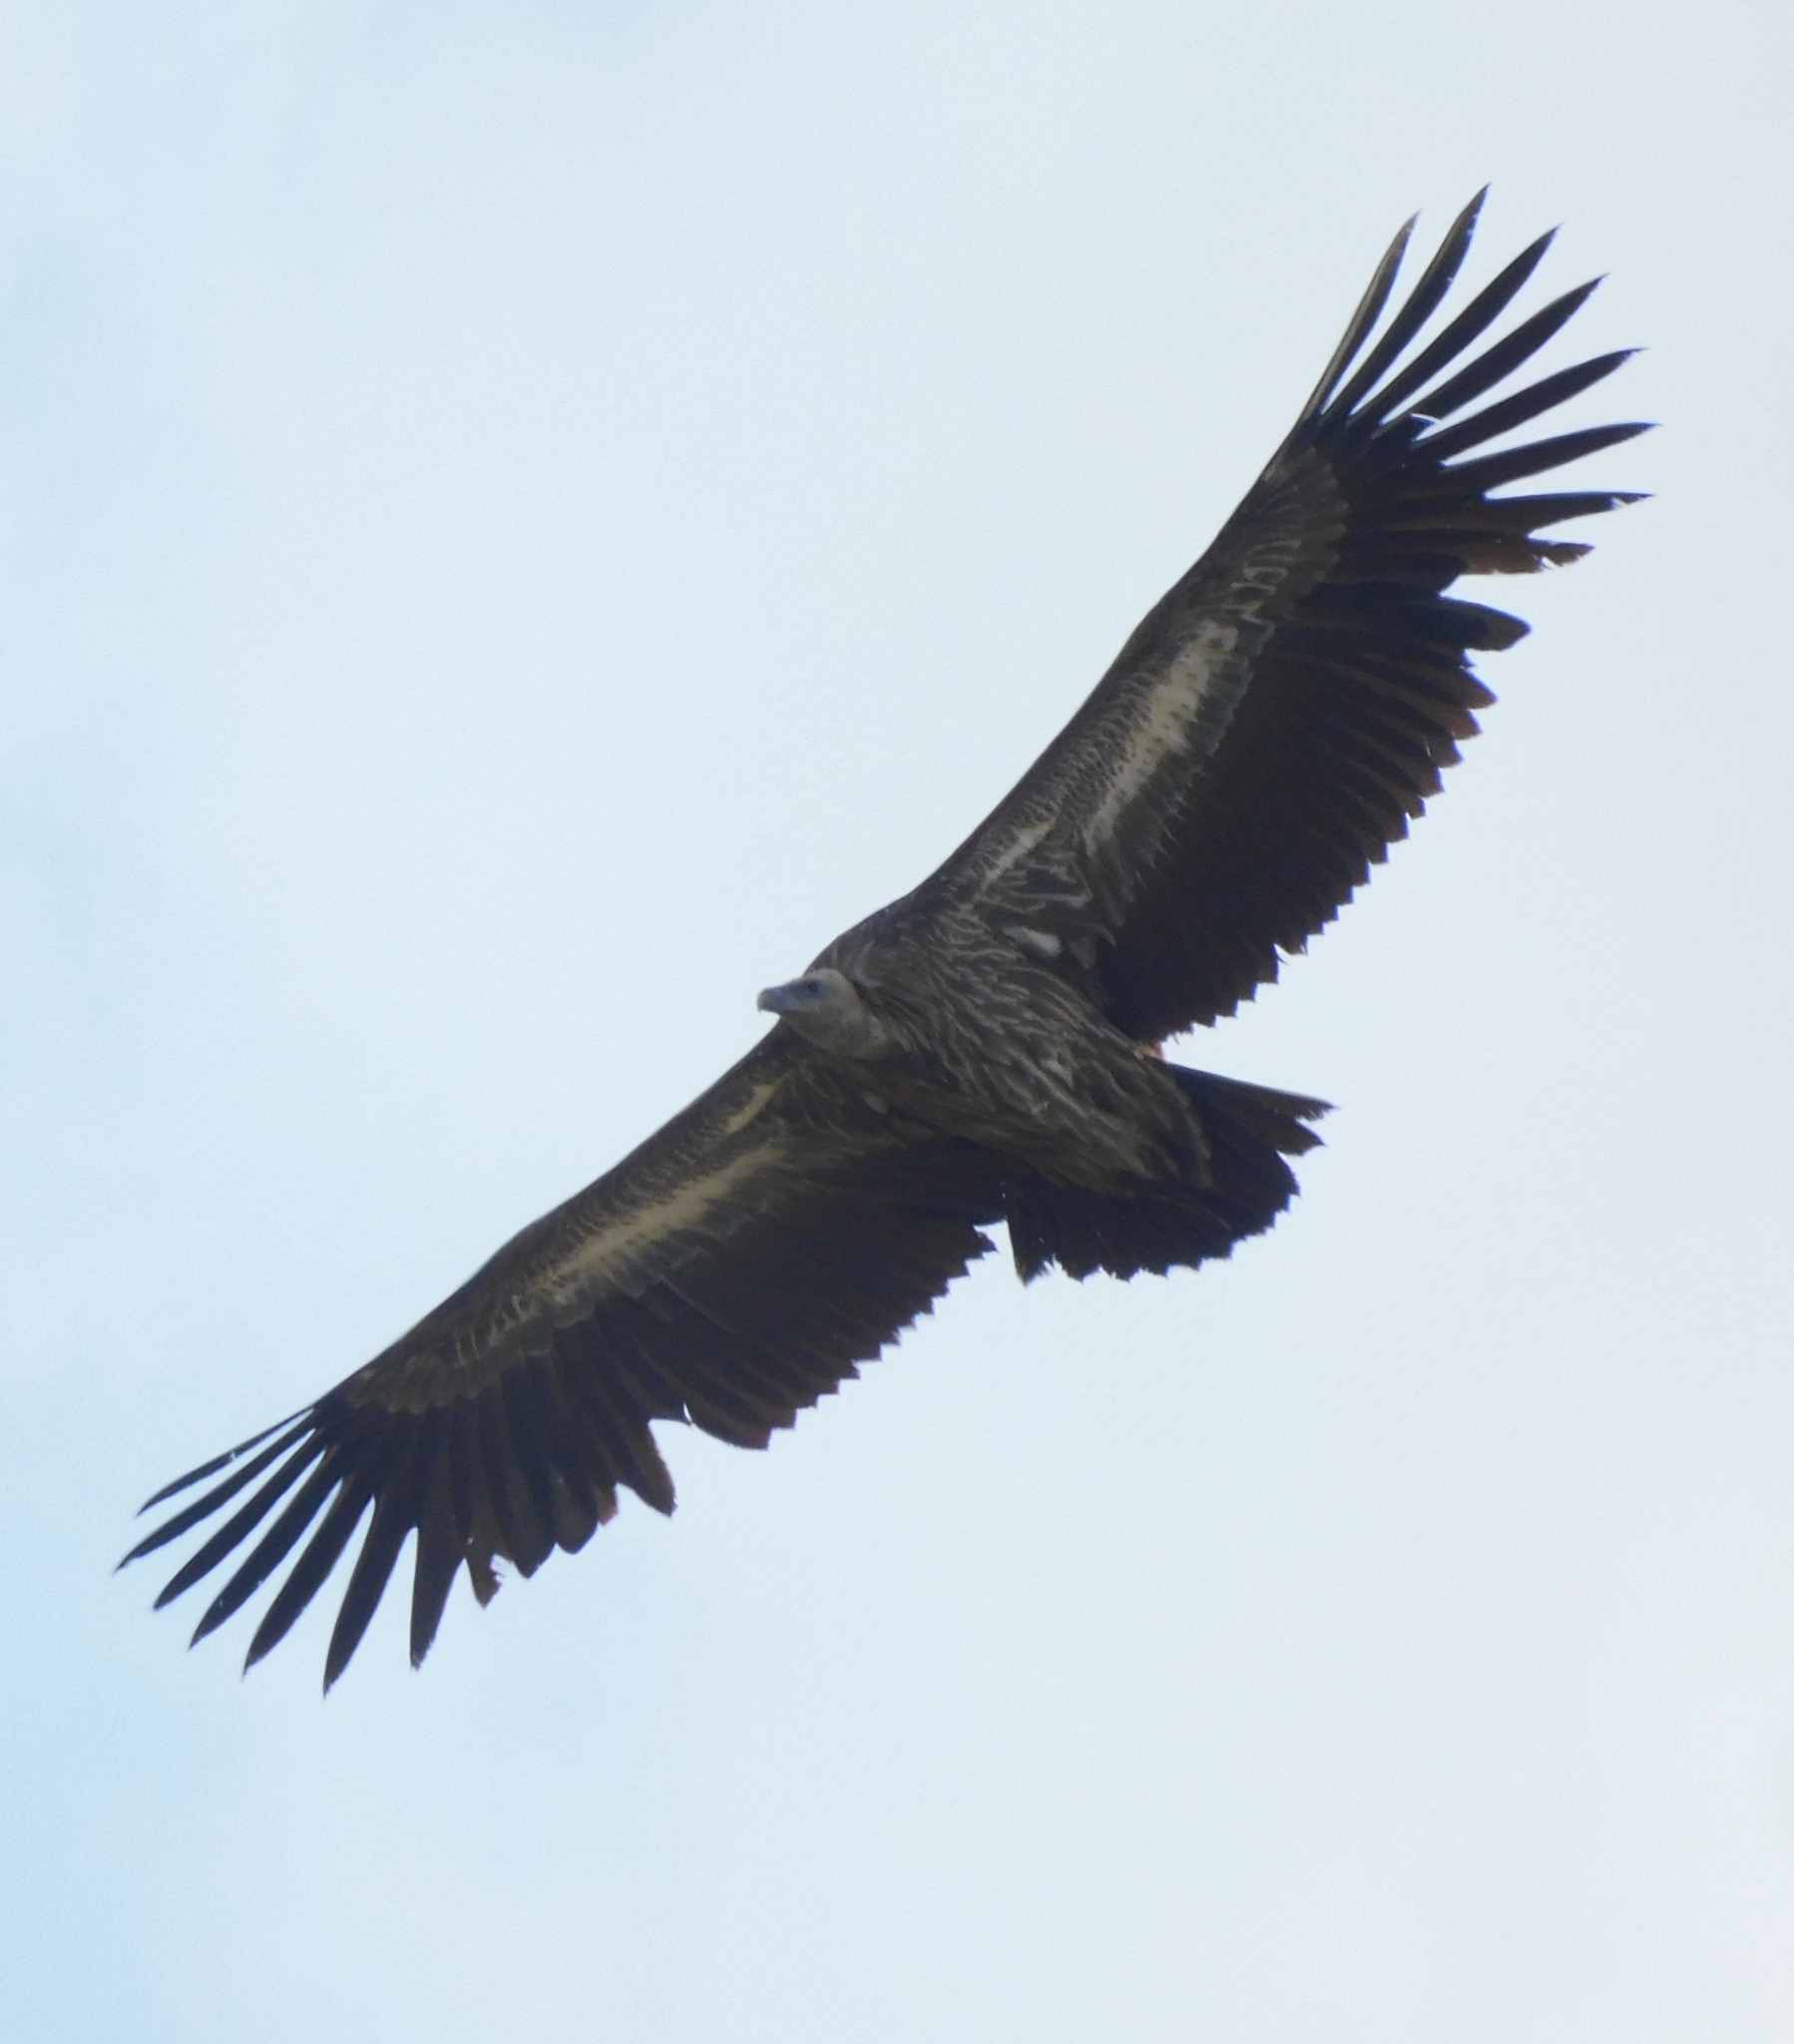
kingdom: Animalia
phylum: Chordata
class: Aves
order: Accipitriformes
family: Accipitridae
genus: Gyps
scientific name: Gyps himalayensis
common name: Himalayan griffon
